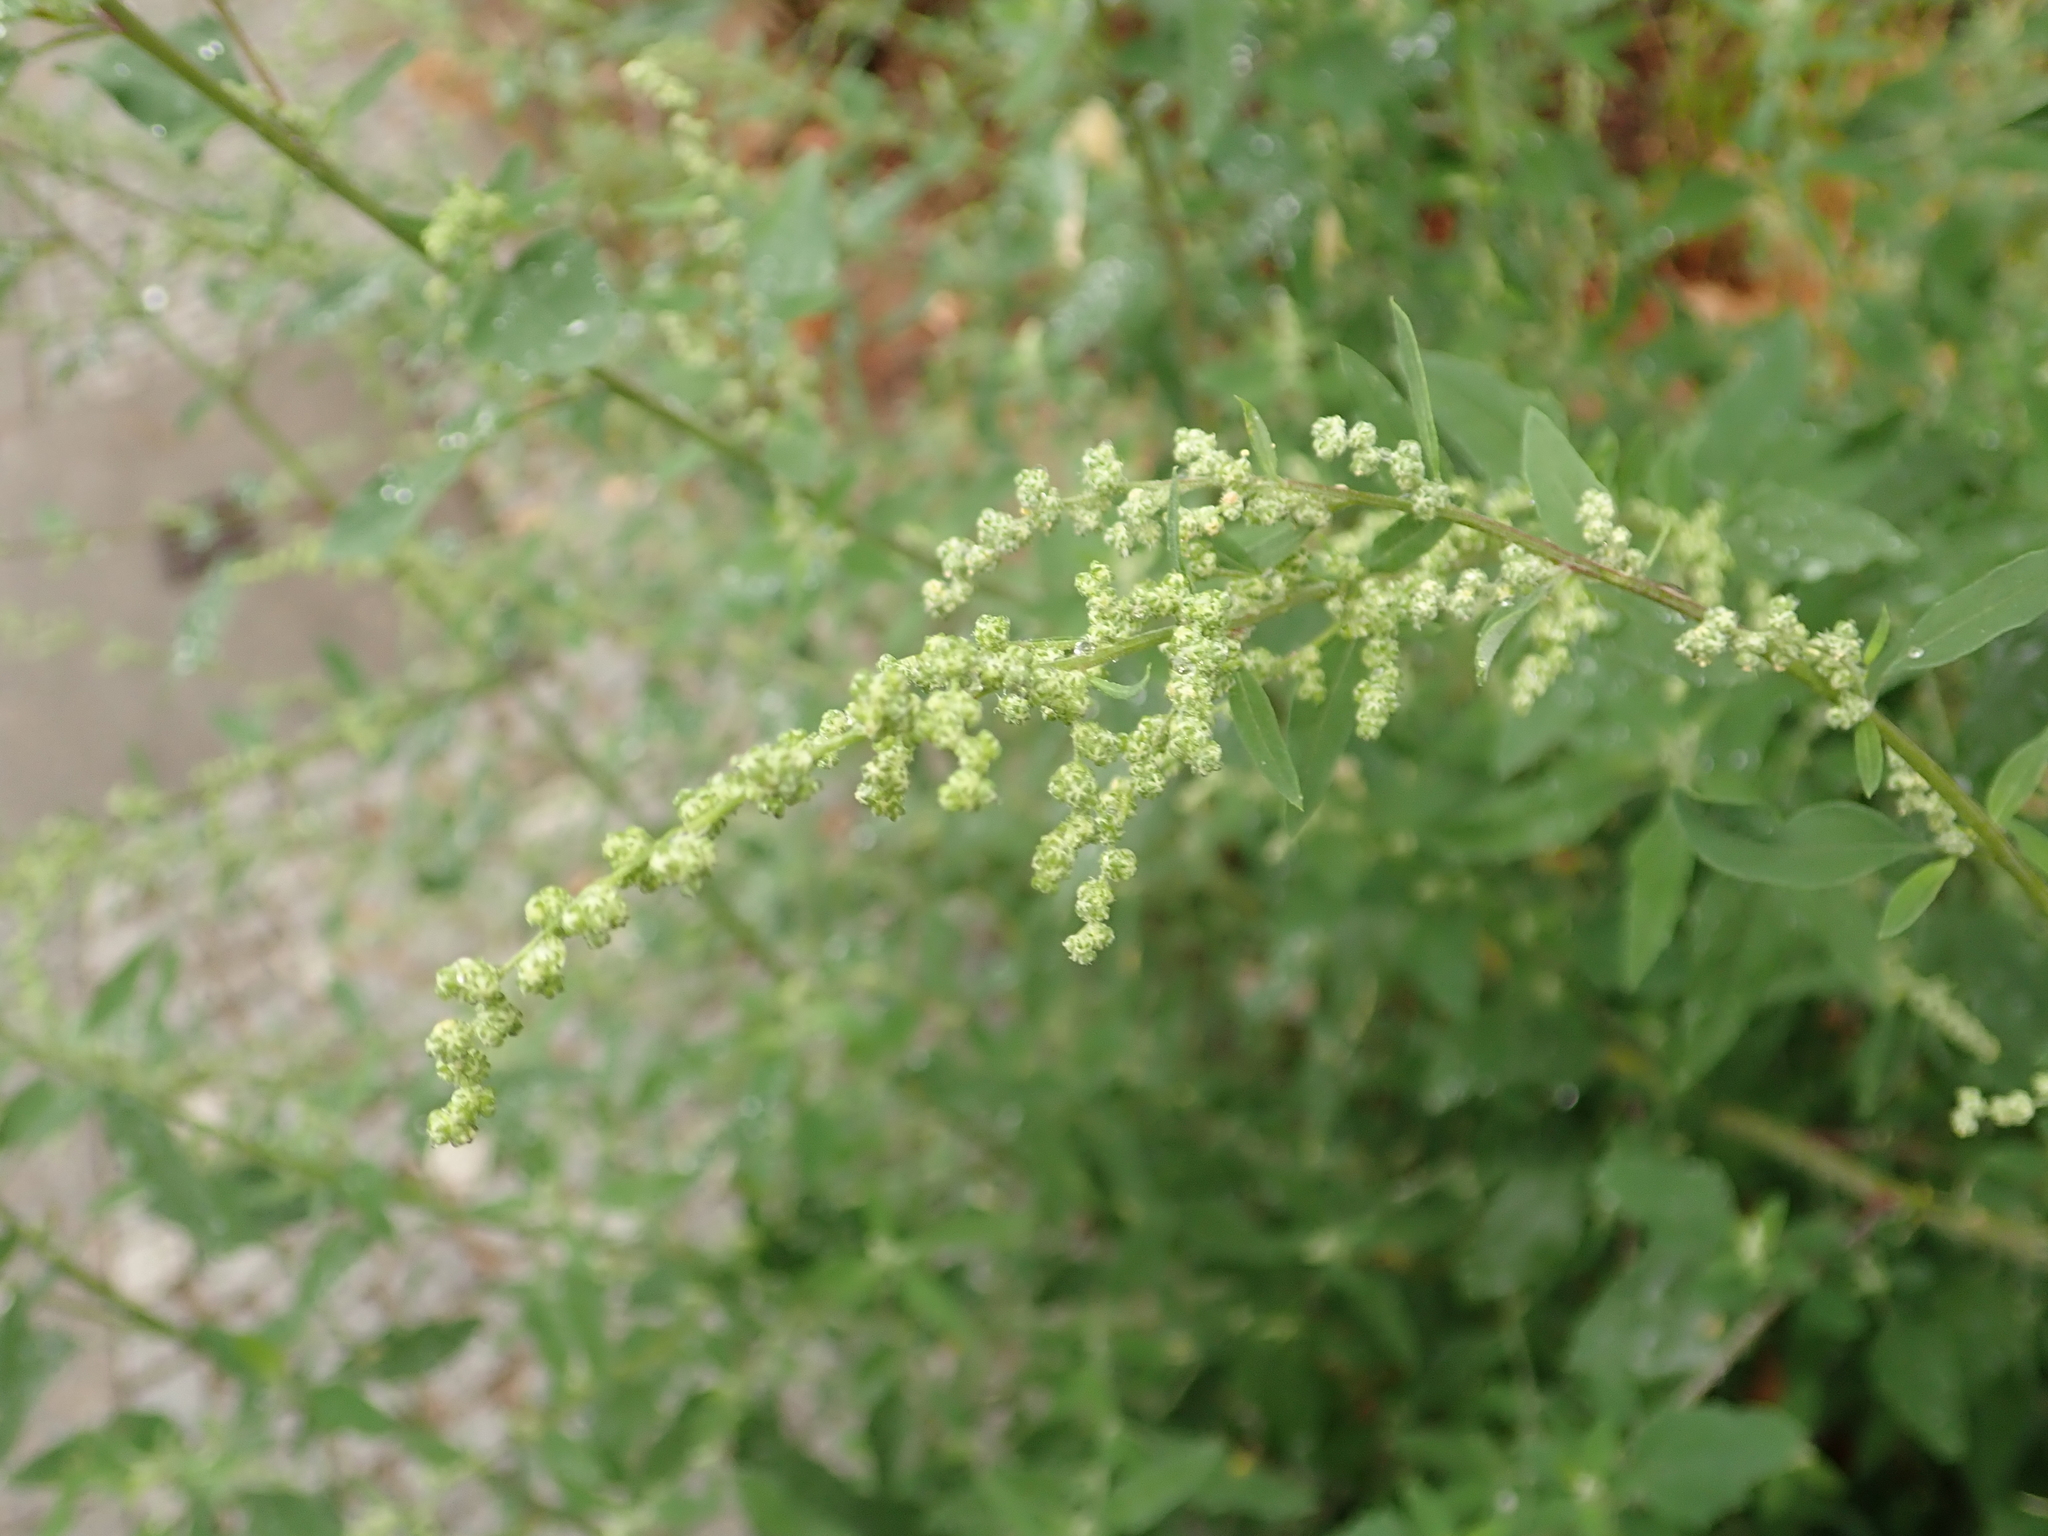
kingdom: Plantae
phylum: Tracheophyta
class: Magnoliopsida
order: Caryophyllales
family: Amaranthaceae
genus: Chenopodium
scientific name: Chenopodium album
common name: Fat-hen
